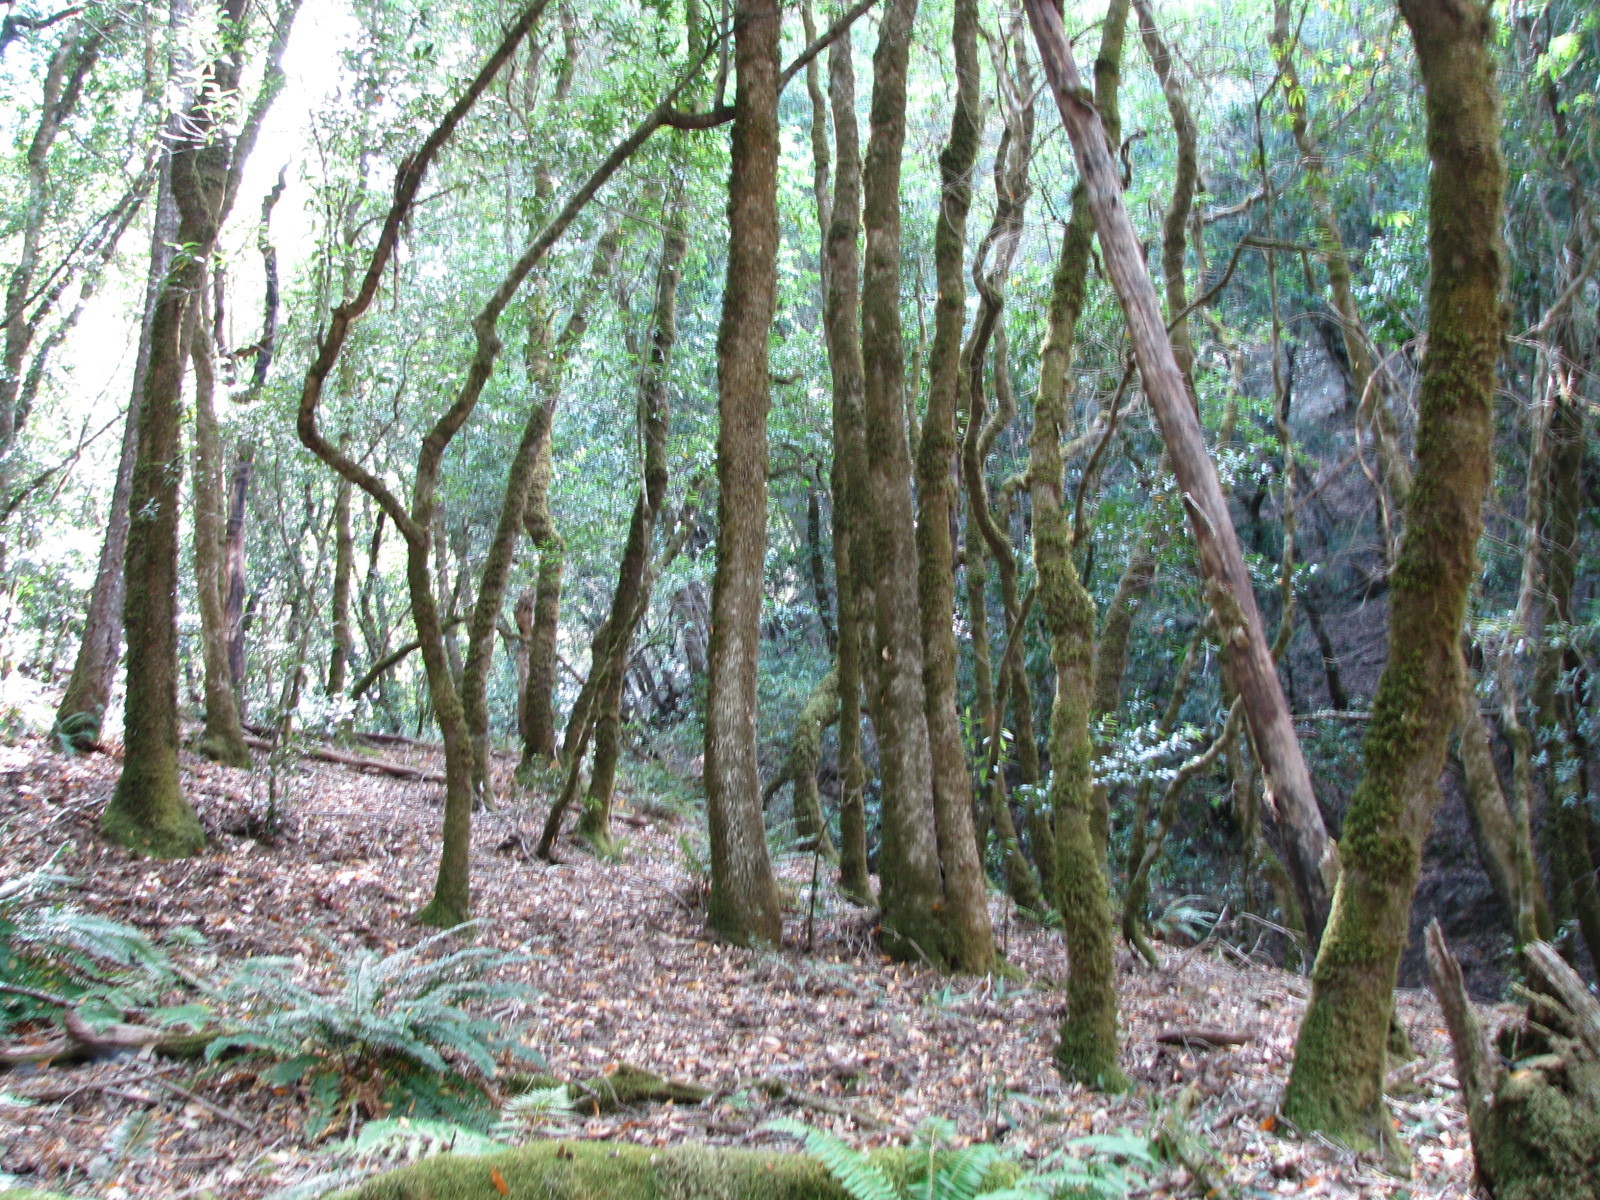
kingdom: Plantae
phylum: Tracheophyta
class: Magnoliopsida
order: Laurales
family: Lauraceae
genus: Umbellularia
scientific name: Umbellularia californica
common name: California bay
